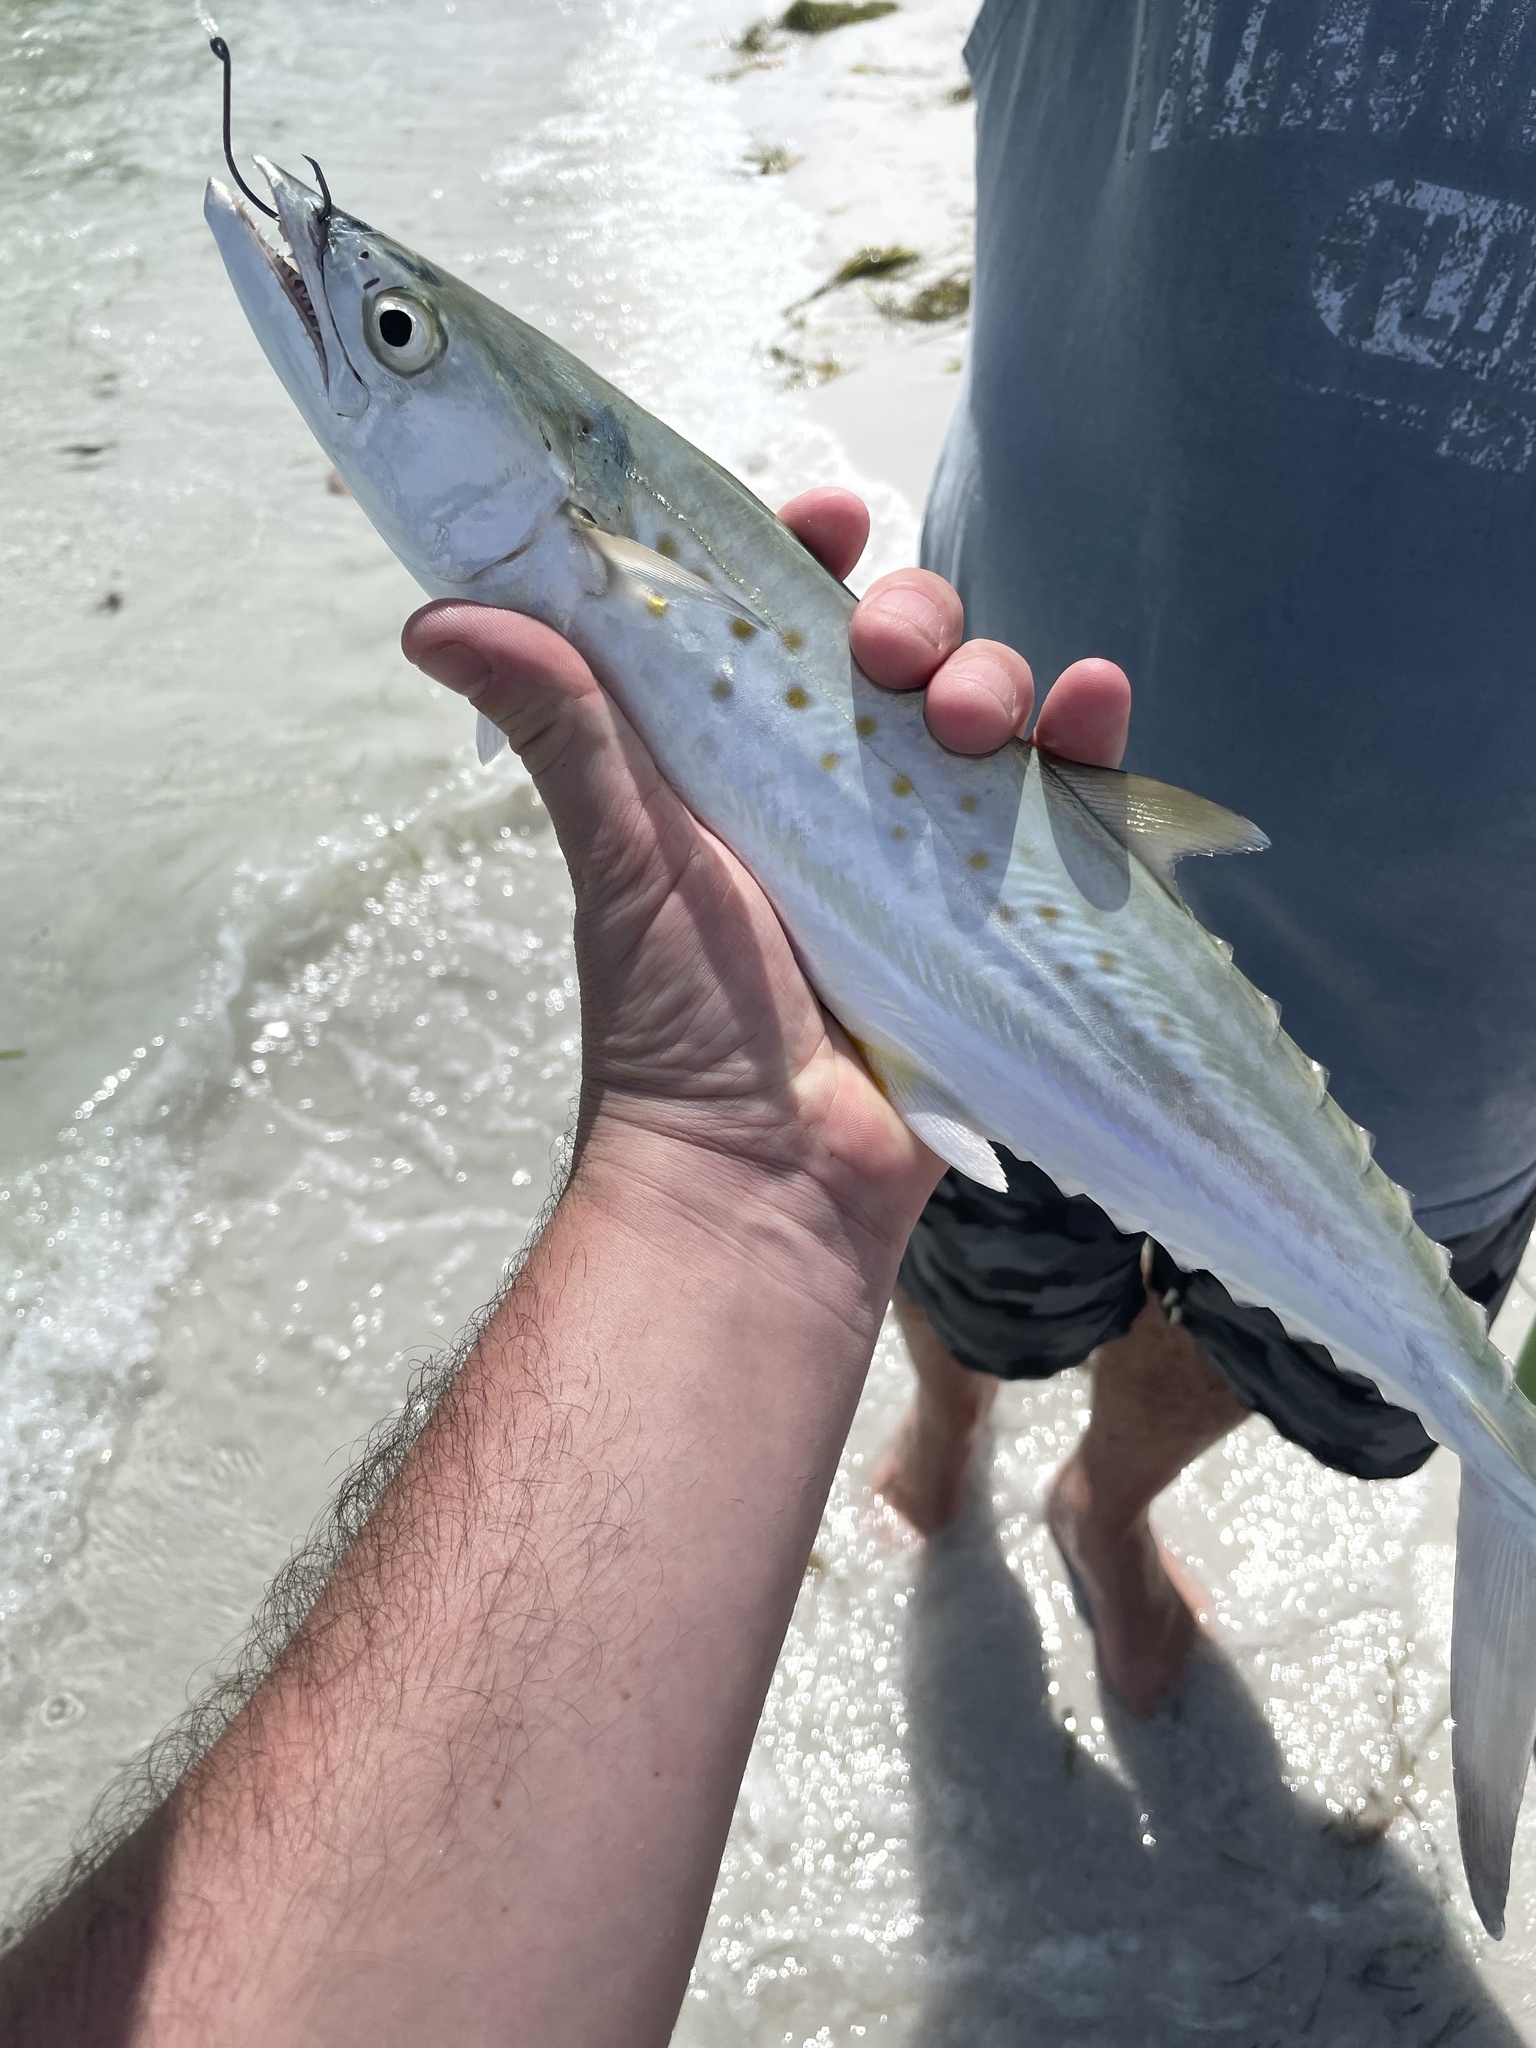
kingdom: Animalia
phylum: Chordata
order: Perciformes
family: Scombridae
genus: Scomberomorus
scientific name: Scomberomorus maculatus
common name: Spanish mackerel
